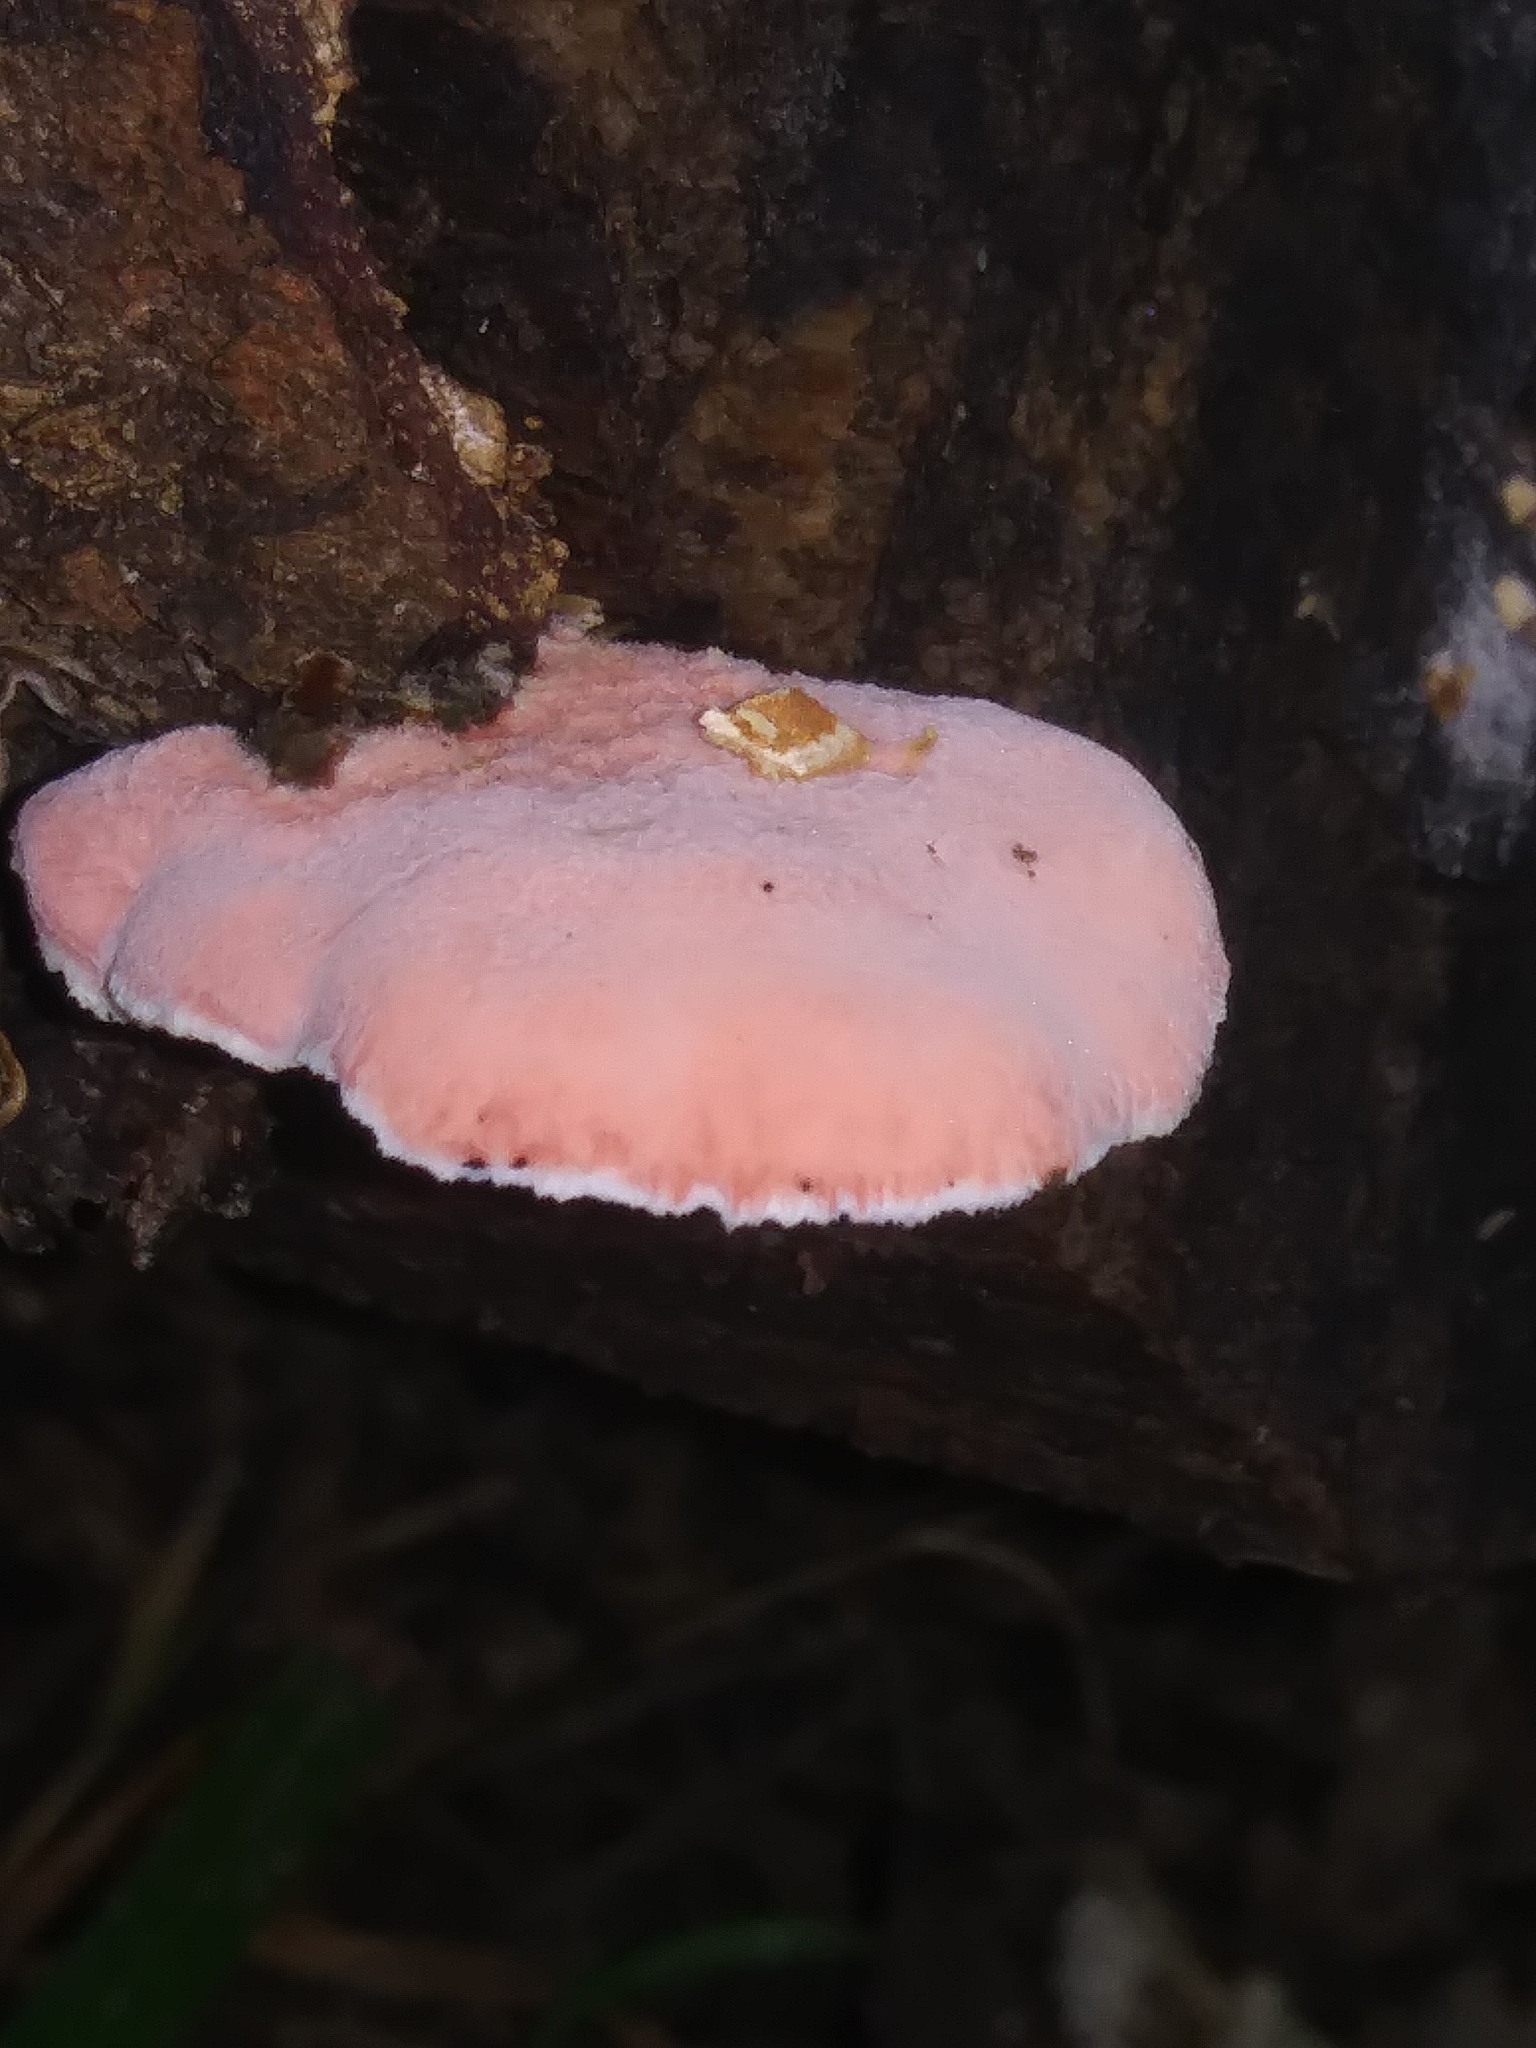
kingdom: Fungi
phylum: Basidiomycota
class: Agaricomycetes
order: Polyporales
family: Irpicaceae
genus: Byssomerulius
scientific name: Byssomerulius incarnatus
